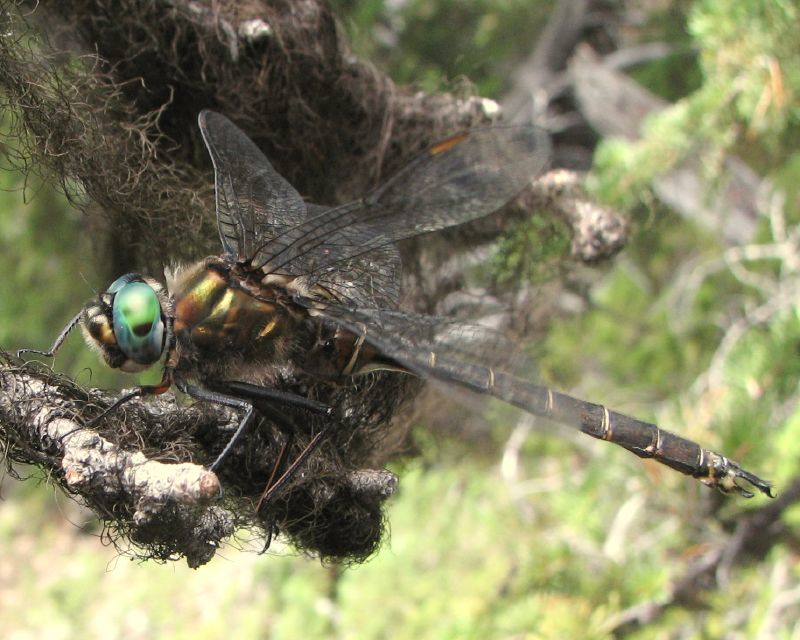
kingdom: Animalia
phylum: Arthropoda
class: Insecta
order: Odonata
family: Corduliidae
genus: Somatochlora
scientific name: Somatochlora cingulata
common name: Lake emerald
